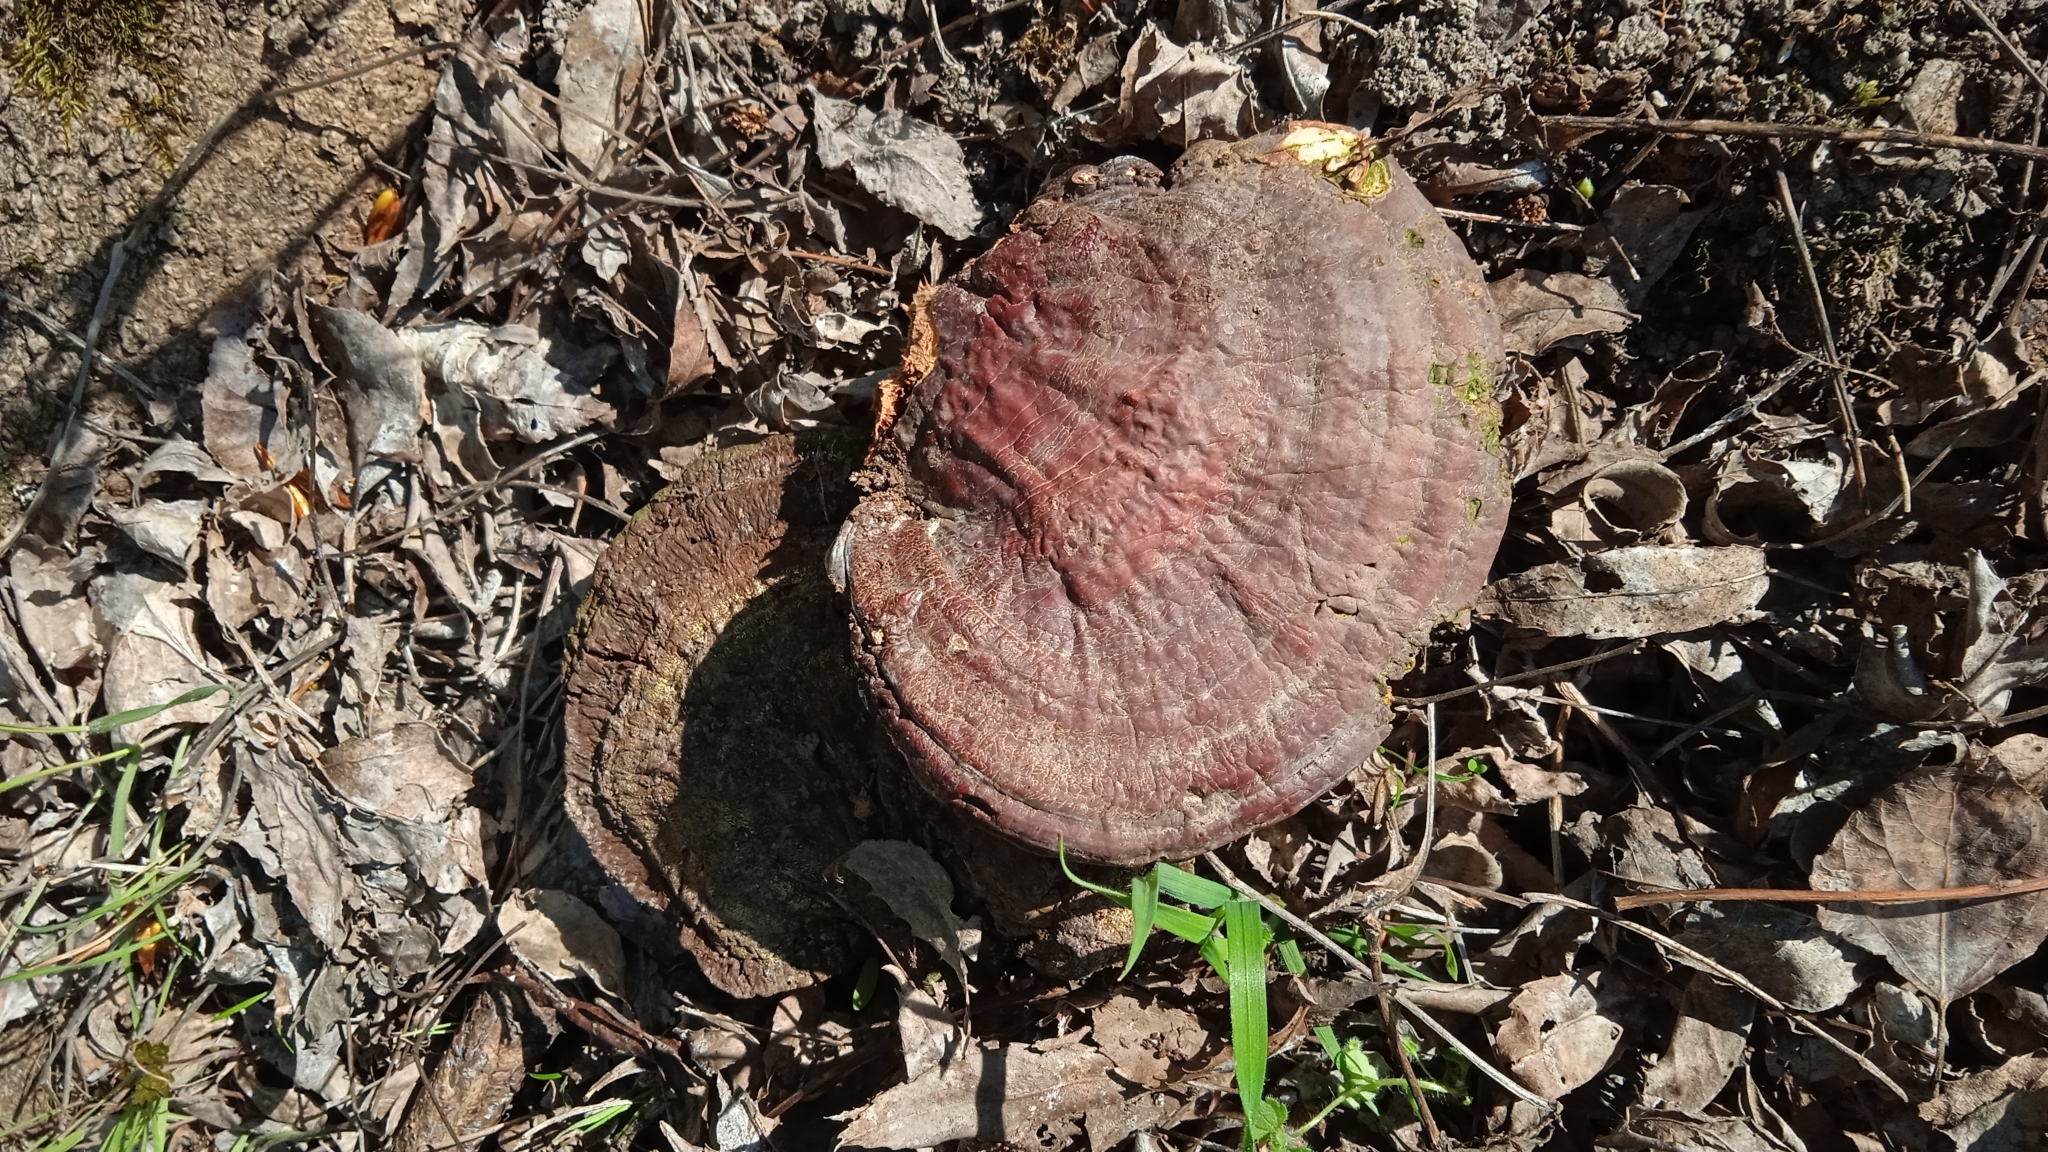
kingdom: Fungi
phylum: Basidiomycota
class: Agaricomycetes
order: Polyporales
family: Polyporaceae
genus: Ganoderma
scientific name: Ganoderma lucidum
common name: Lacquered bracket
